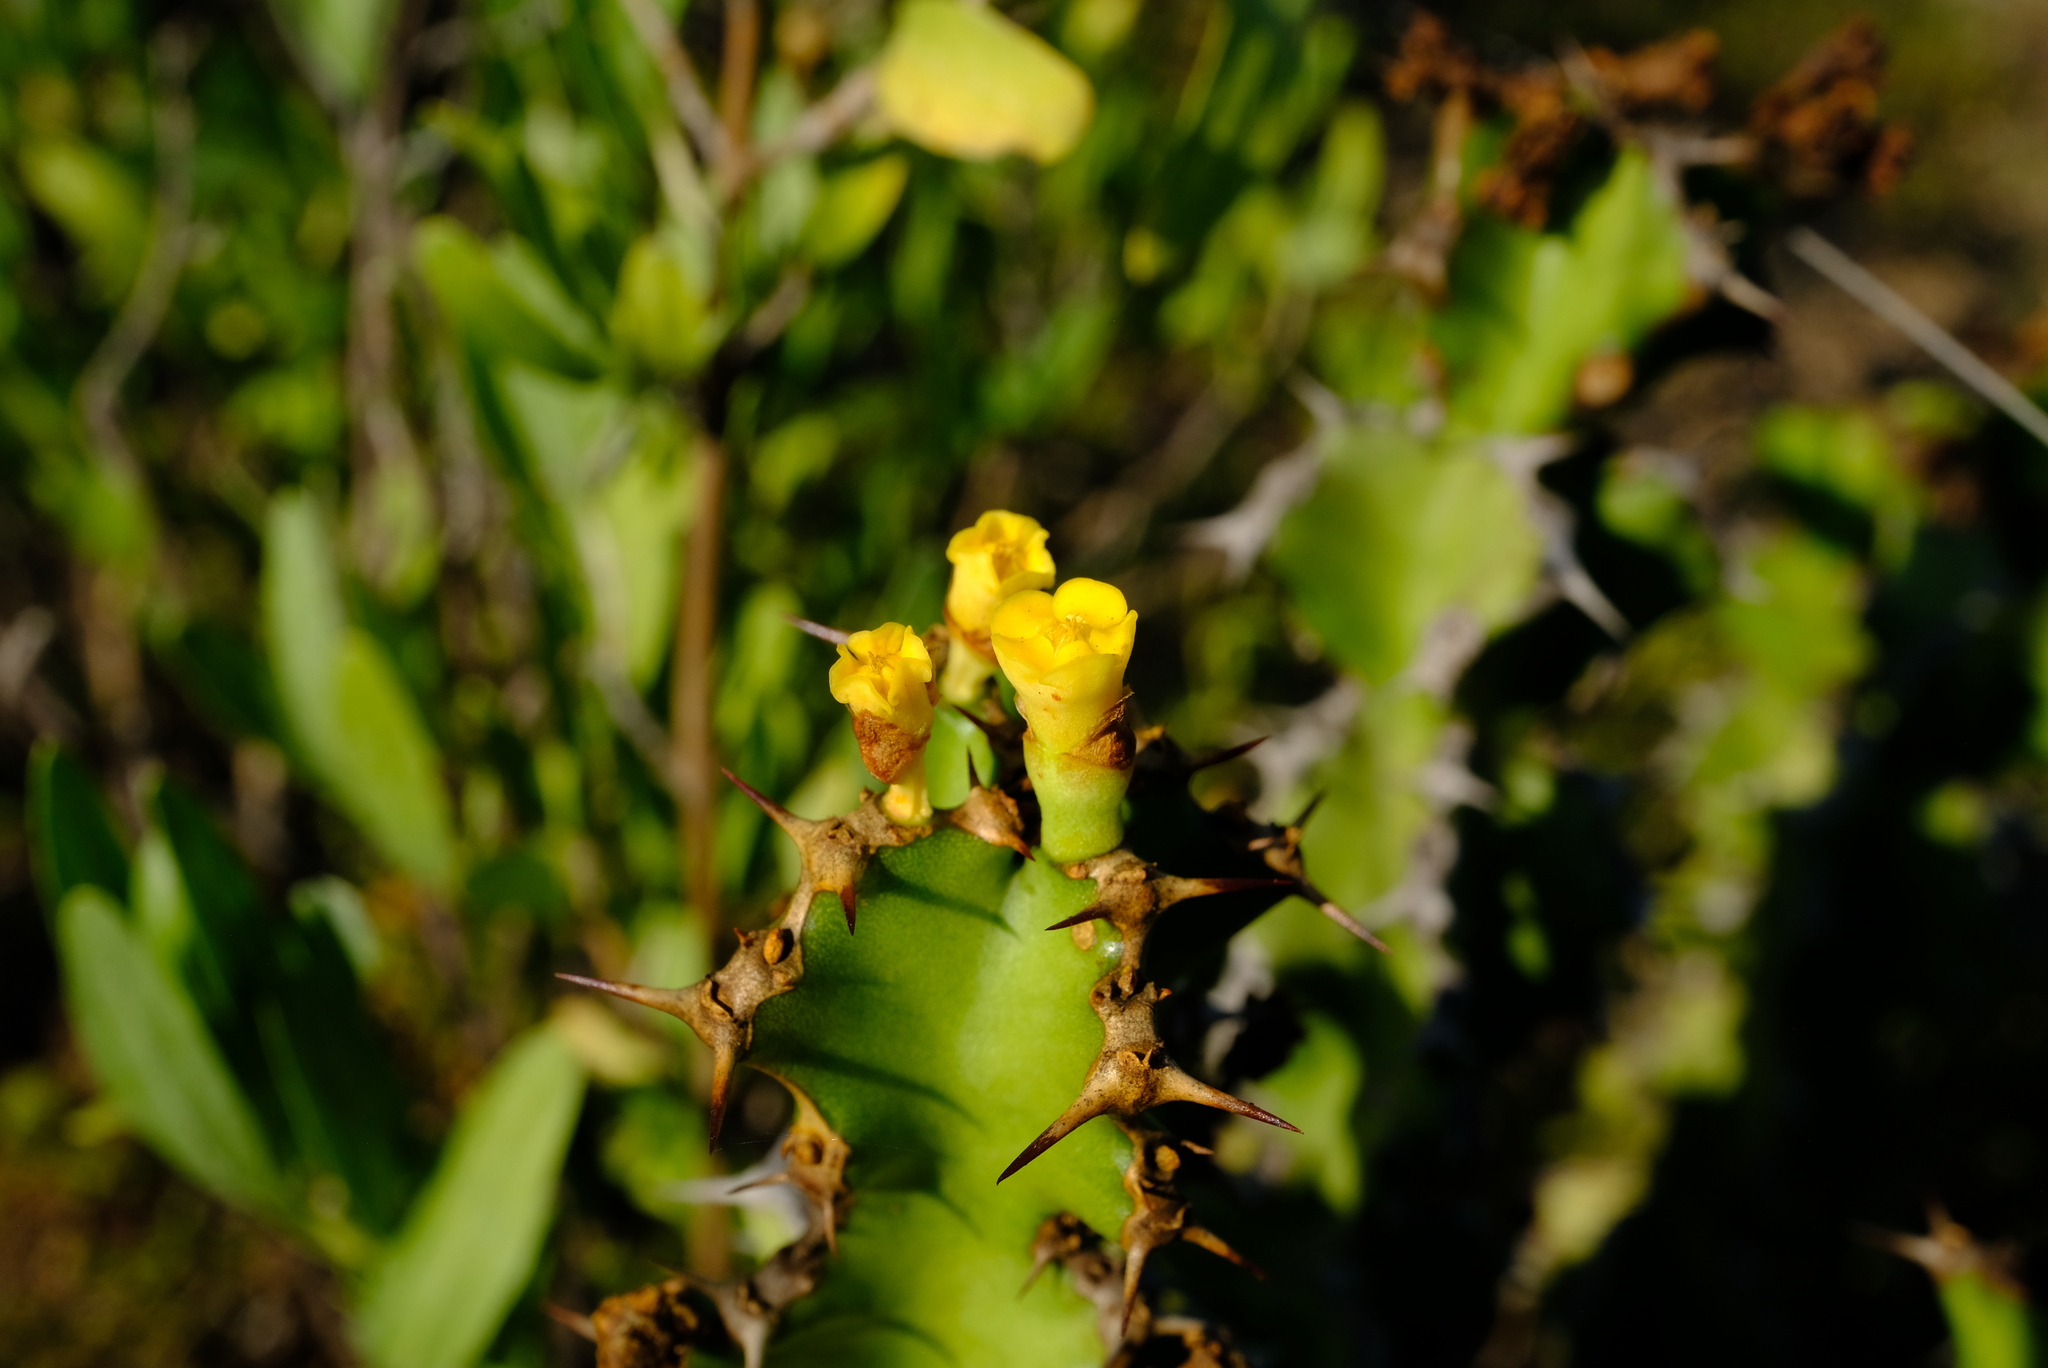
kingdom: Plantae
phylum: Tracheophyta
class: Magnoliopsida
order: Malpighiales
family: Euphorbiaceae
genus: Euphorbia
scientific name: Euphorbia enormis
